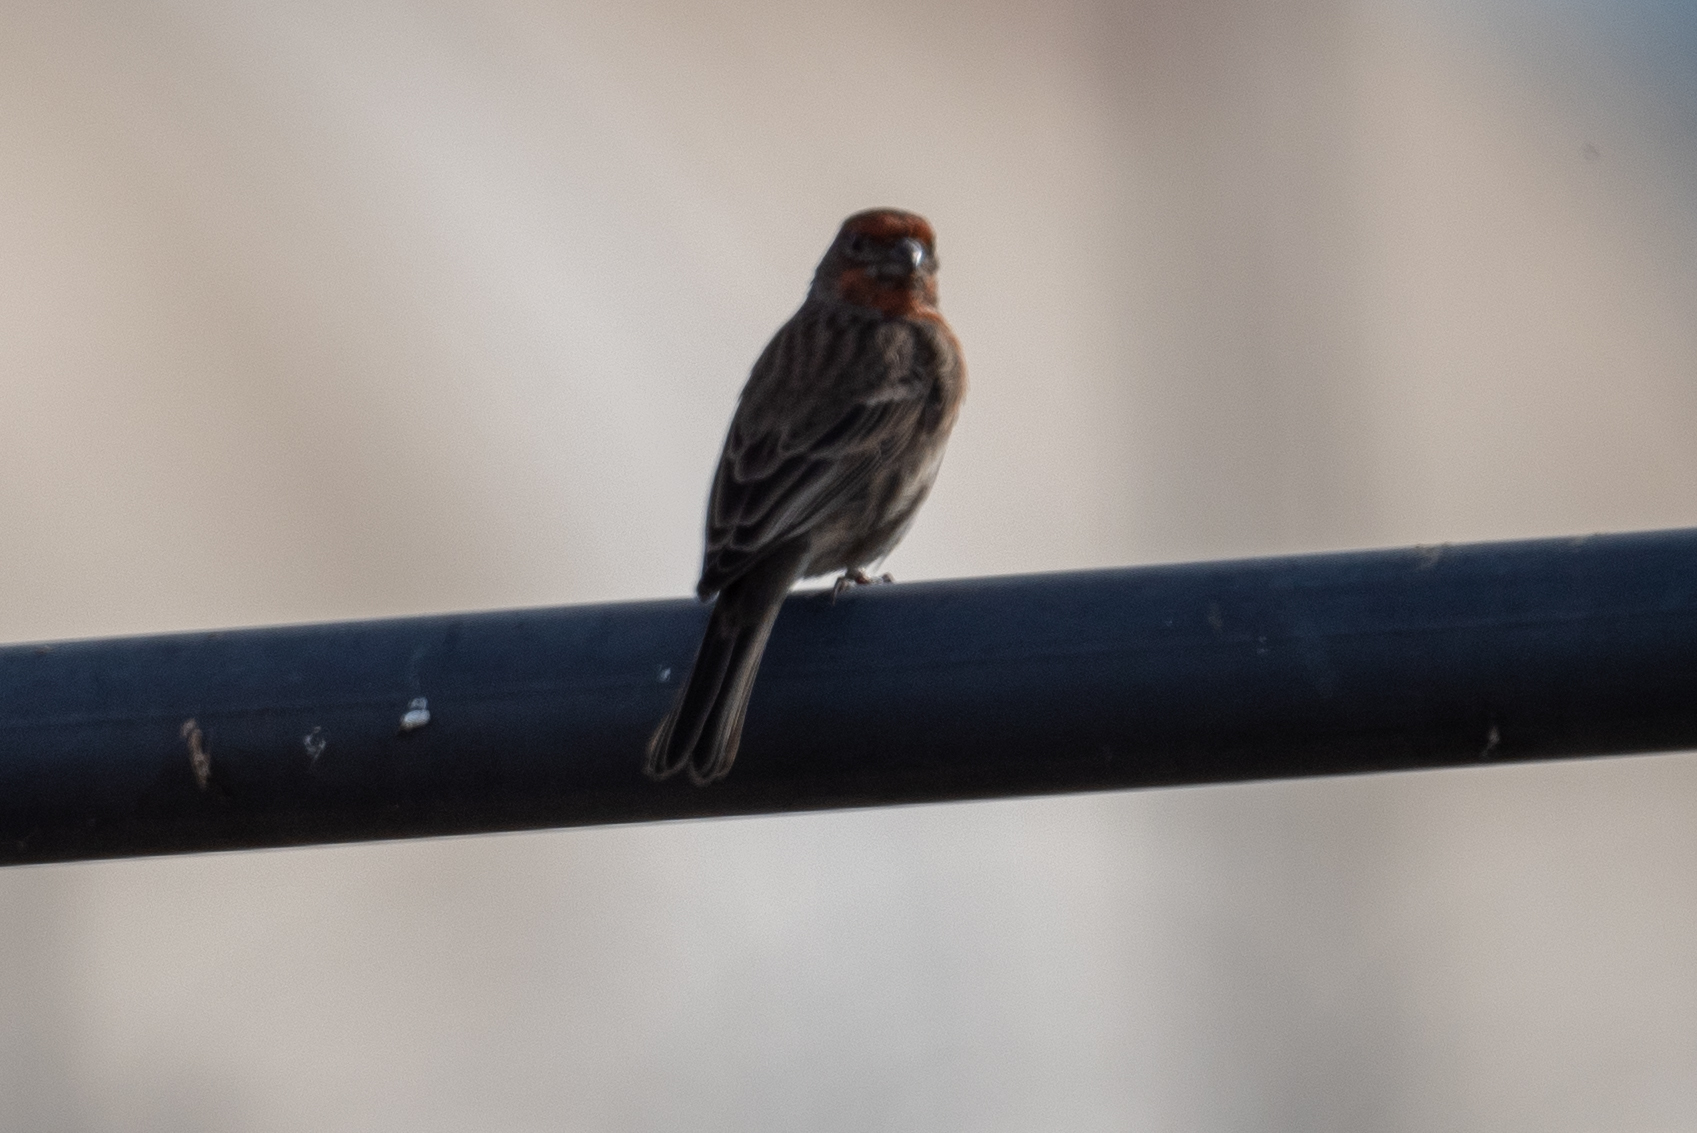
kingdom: Animalia
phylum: Chordata
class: Aves
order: Passeriformes
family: Fringillidae
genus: Haemorhous
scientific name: Haemorhous mexicanus
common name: House finch
